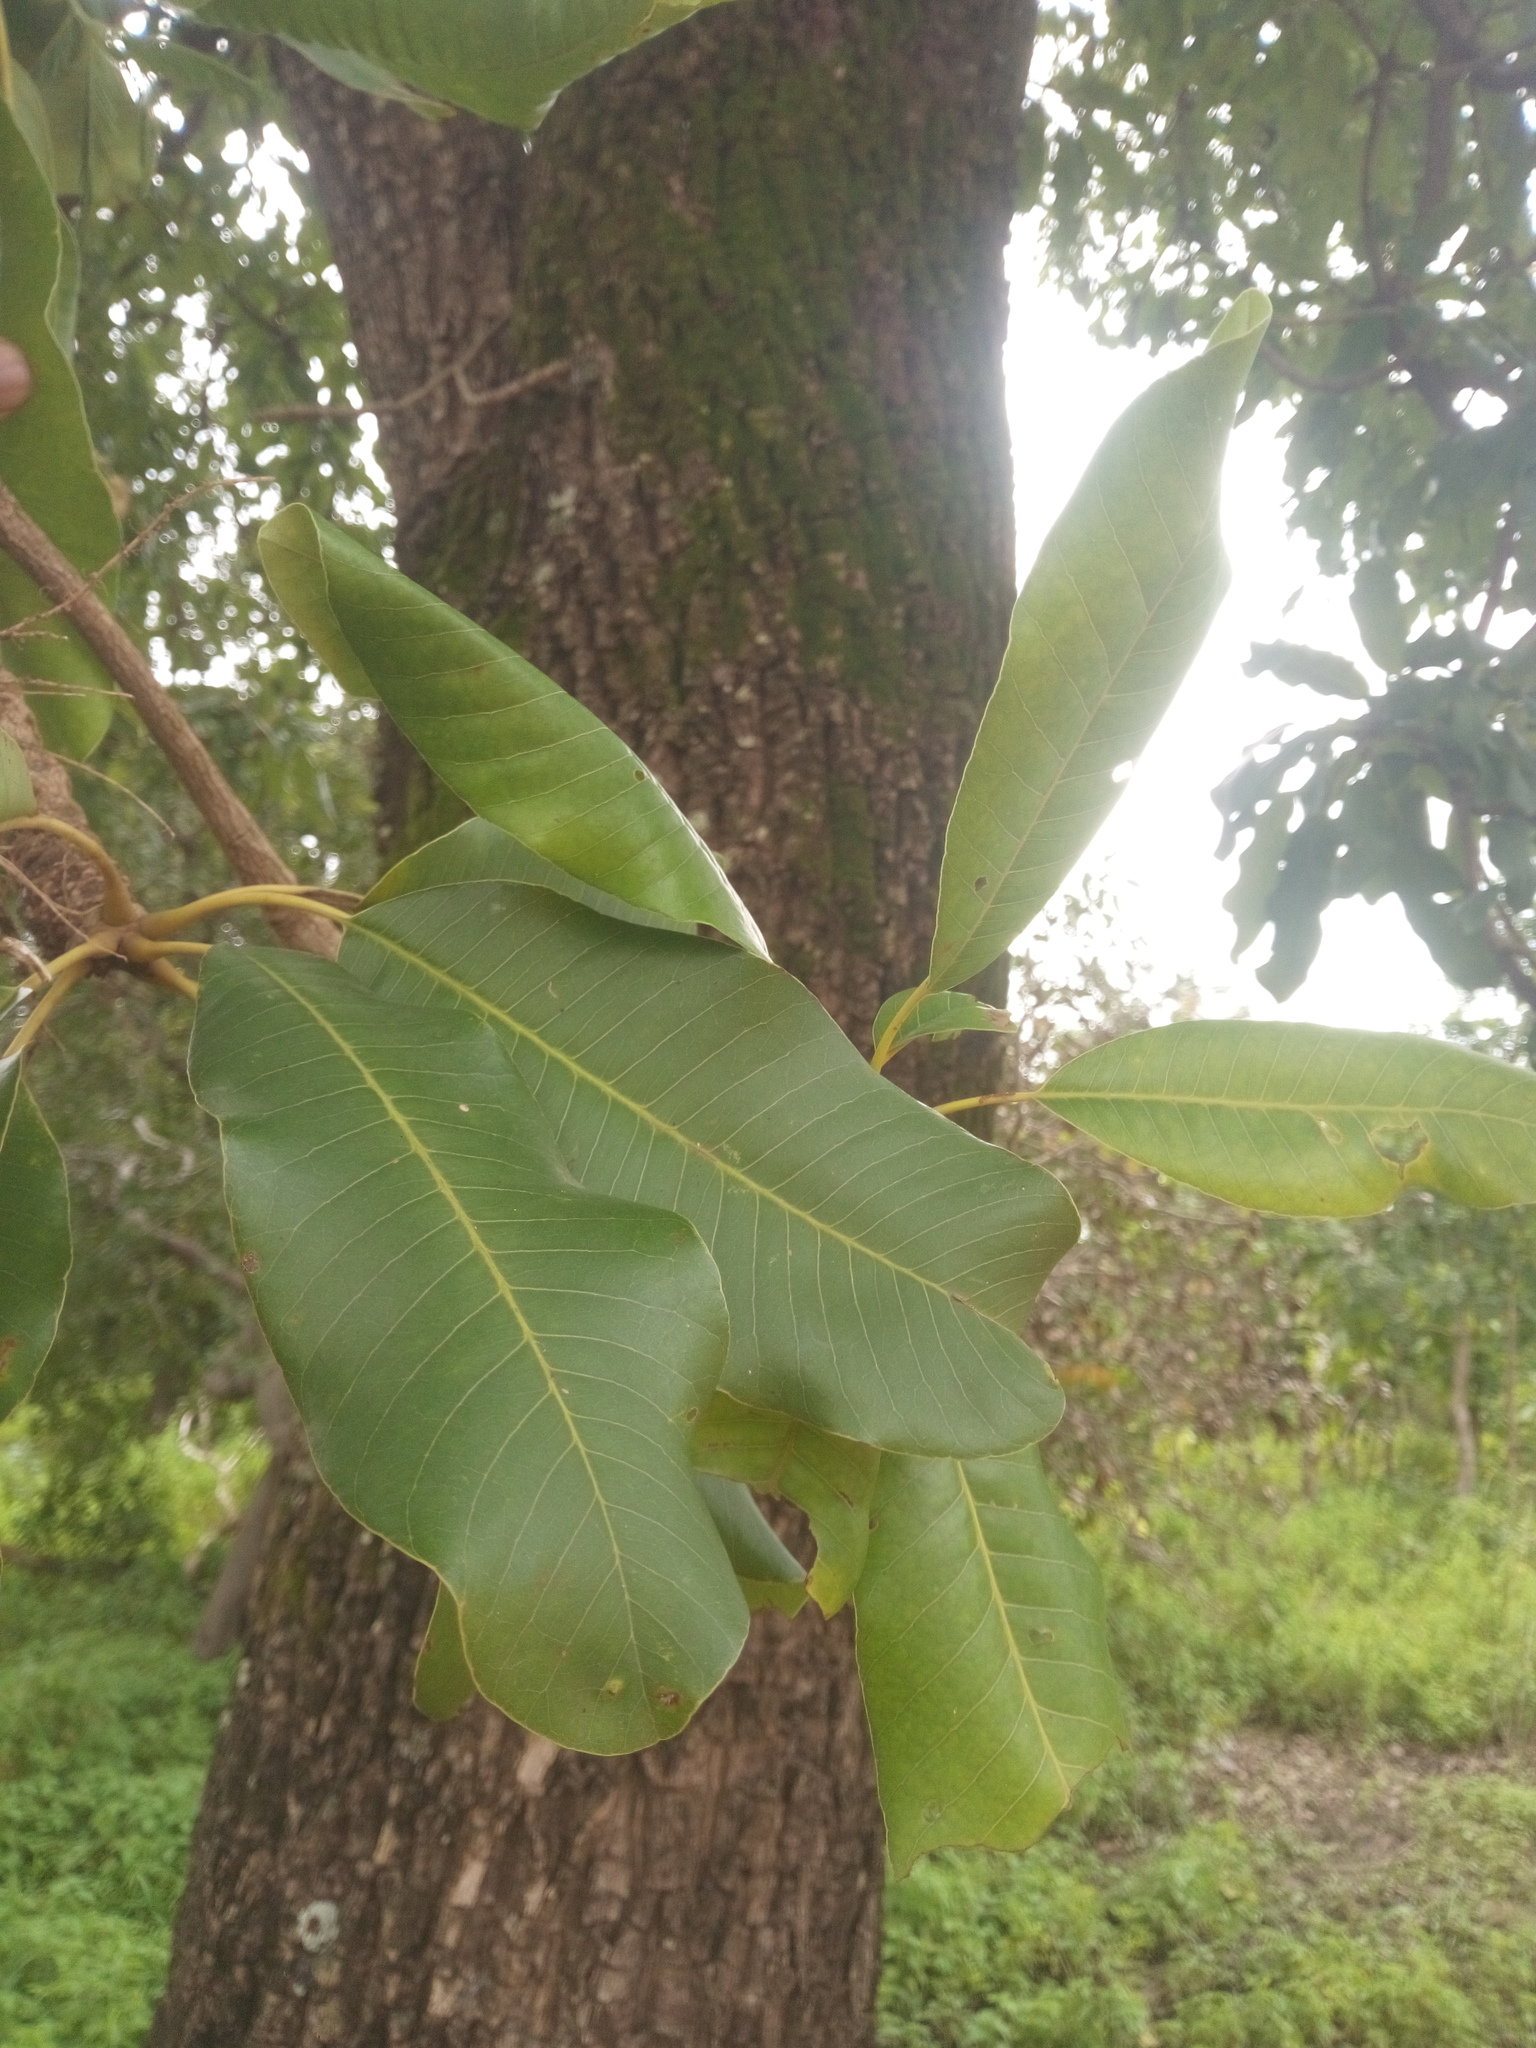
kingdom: Plantae
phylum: Tracheophyta
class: Magnoliopsida
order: Ericales
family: Sapotaceae
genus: Vitellaria
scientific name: Vitellaria paradoxa
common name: Shea butter tree
